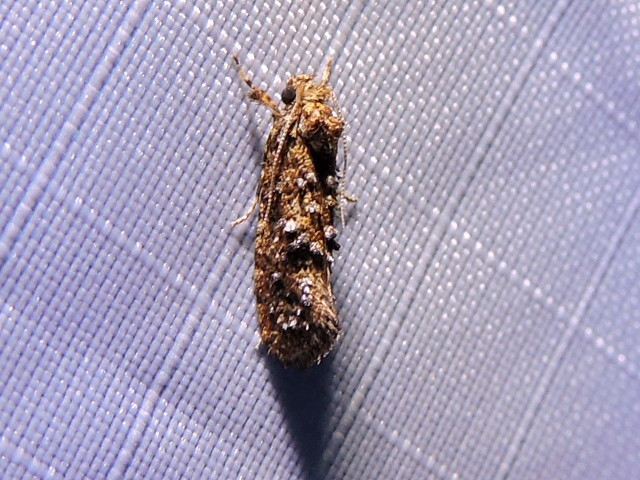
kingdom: Animalia
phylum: Arthropoda
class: Insecta
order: Lepidoptera
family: Tineidae
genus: Acrolophus
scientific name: Acrolophus cressoni
